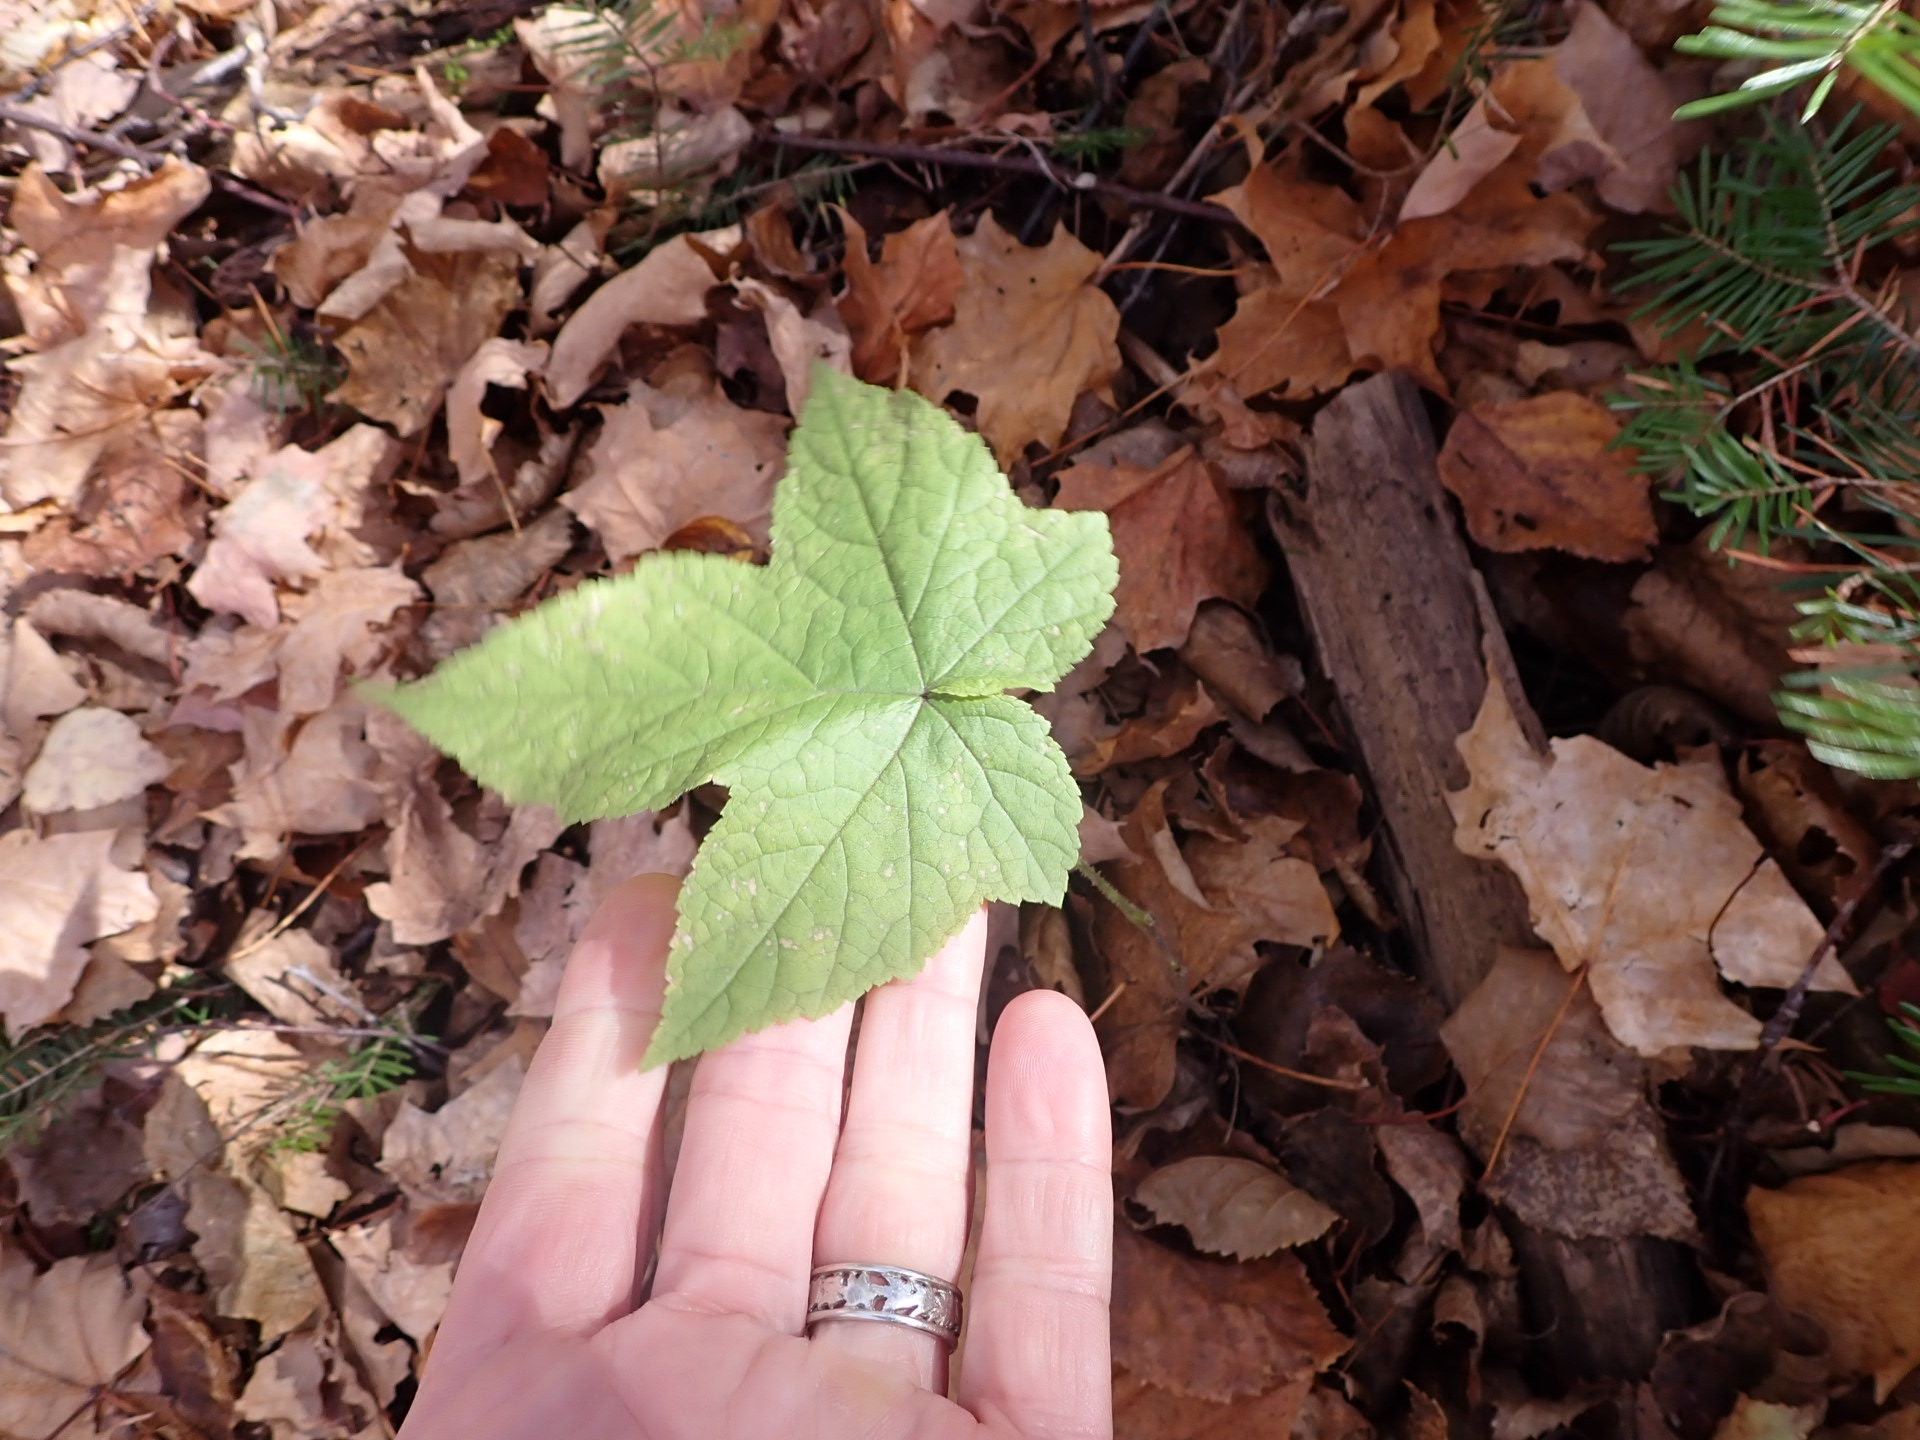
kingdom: Plantae
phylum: Tracheophyta
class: Magnoliopsida
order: Rosales
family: Rosaceae
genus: Rubus
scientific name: Rubus odoratus
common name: Purple-flowered raspberry
